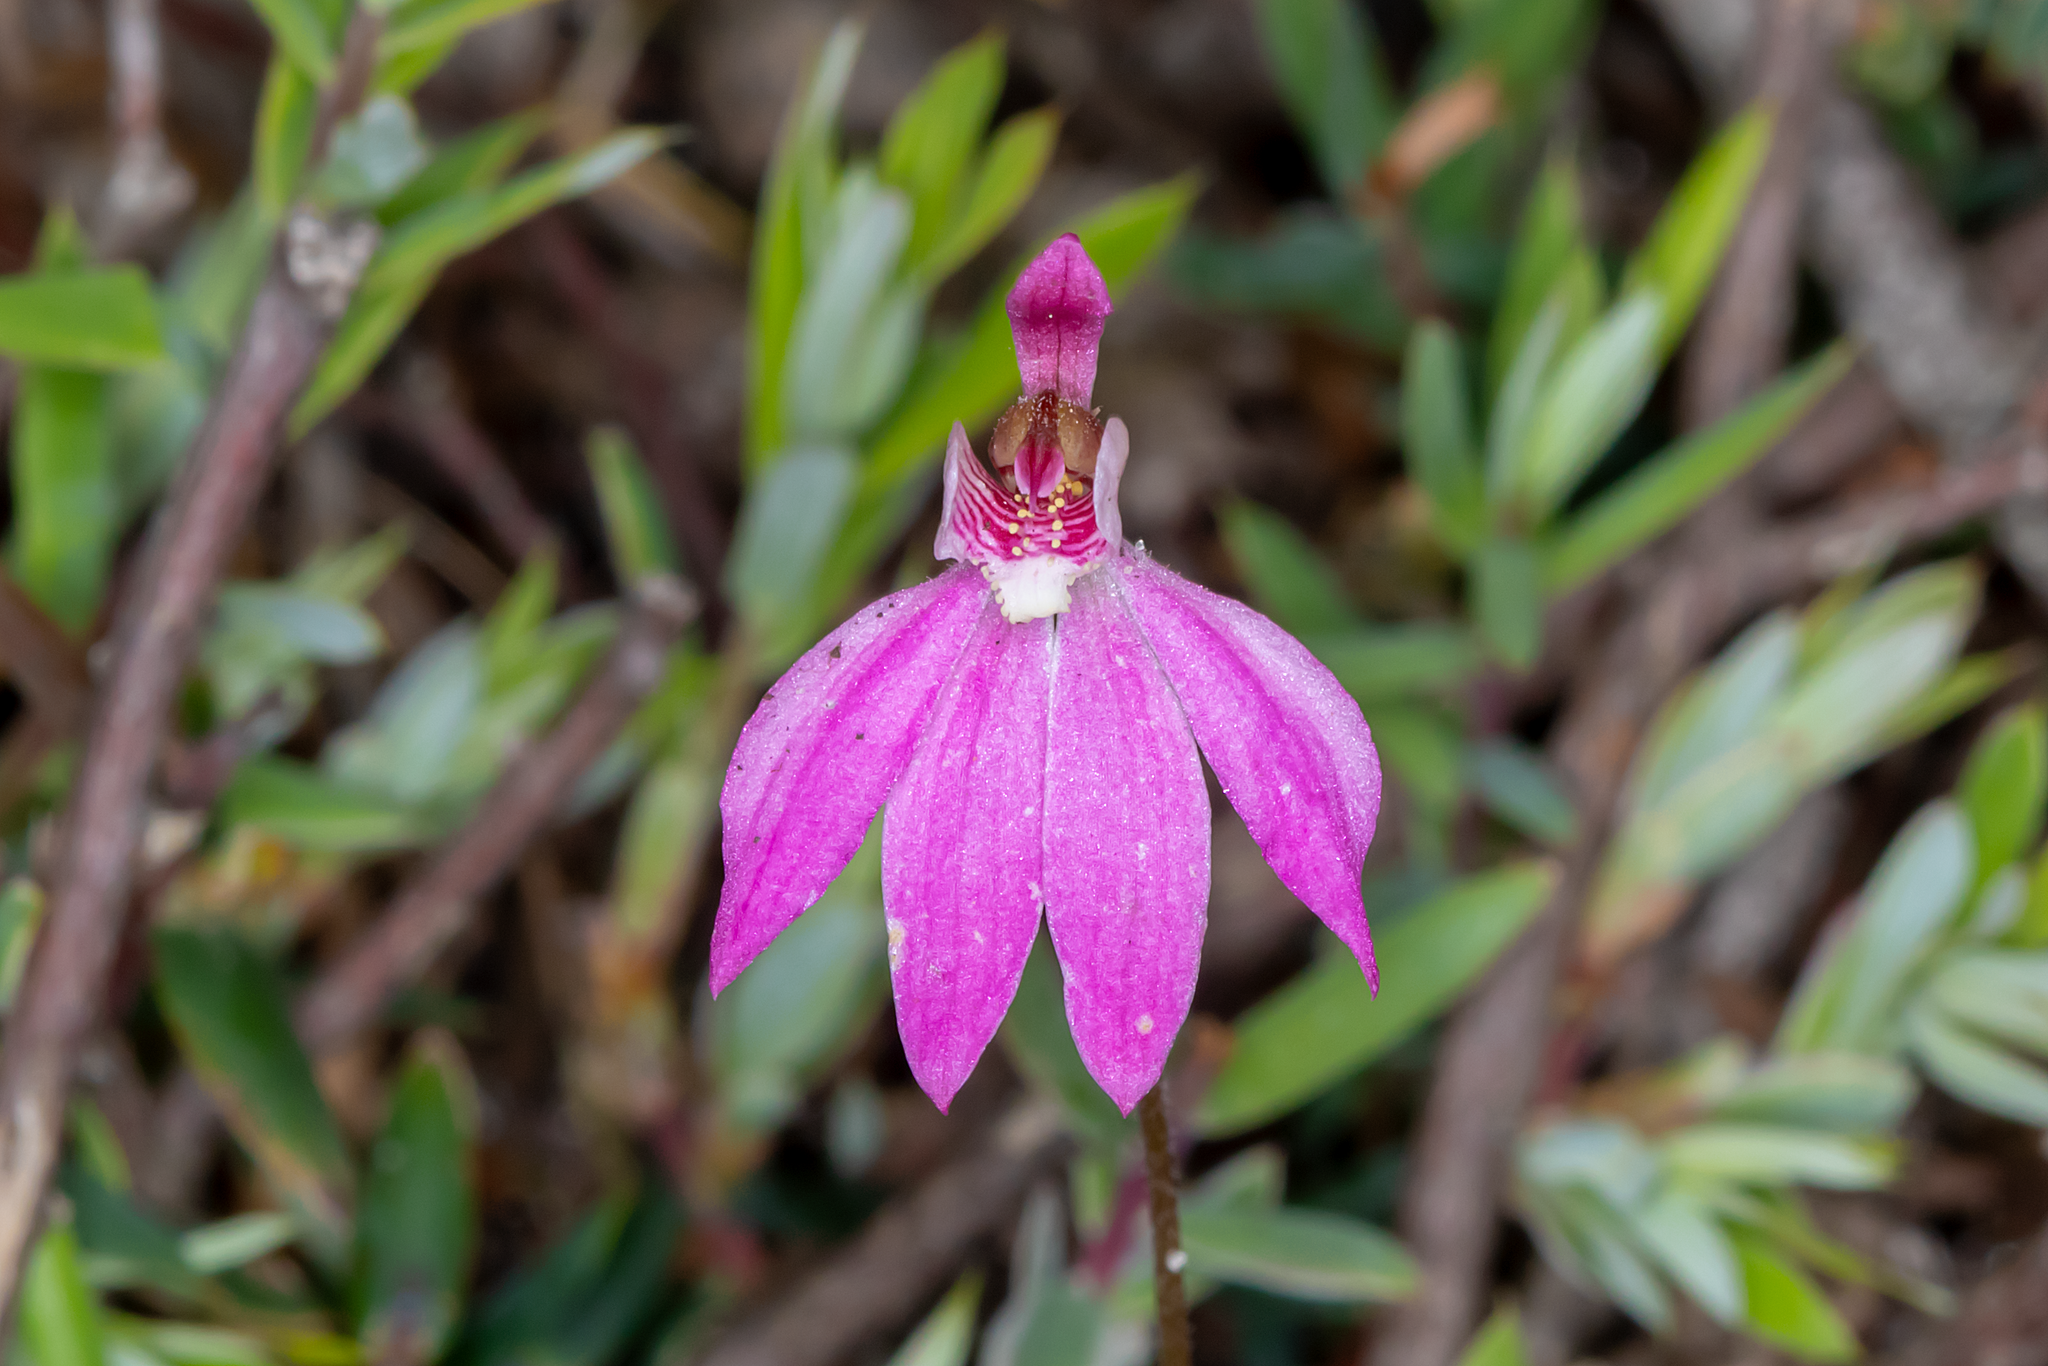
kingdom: Plantae
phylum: Tracheophyta
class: Liliopsida
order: Asparagales
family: Orchidaceae
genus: Caladenia
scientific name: Caladenia carnea
